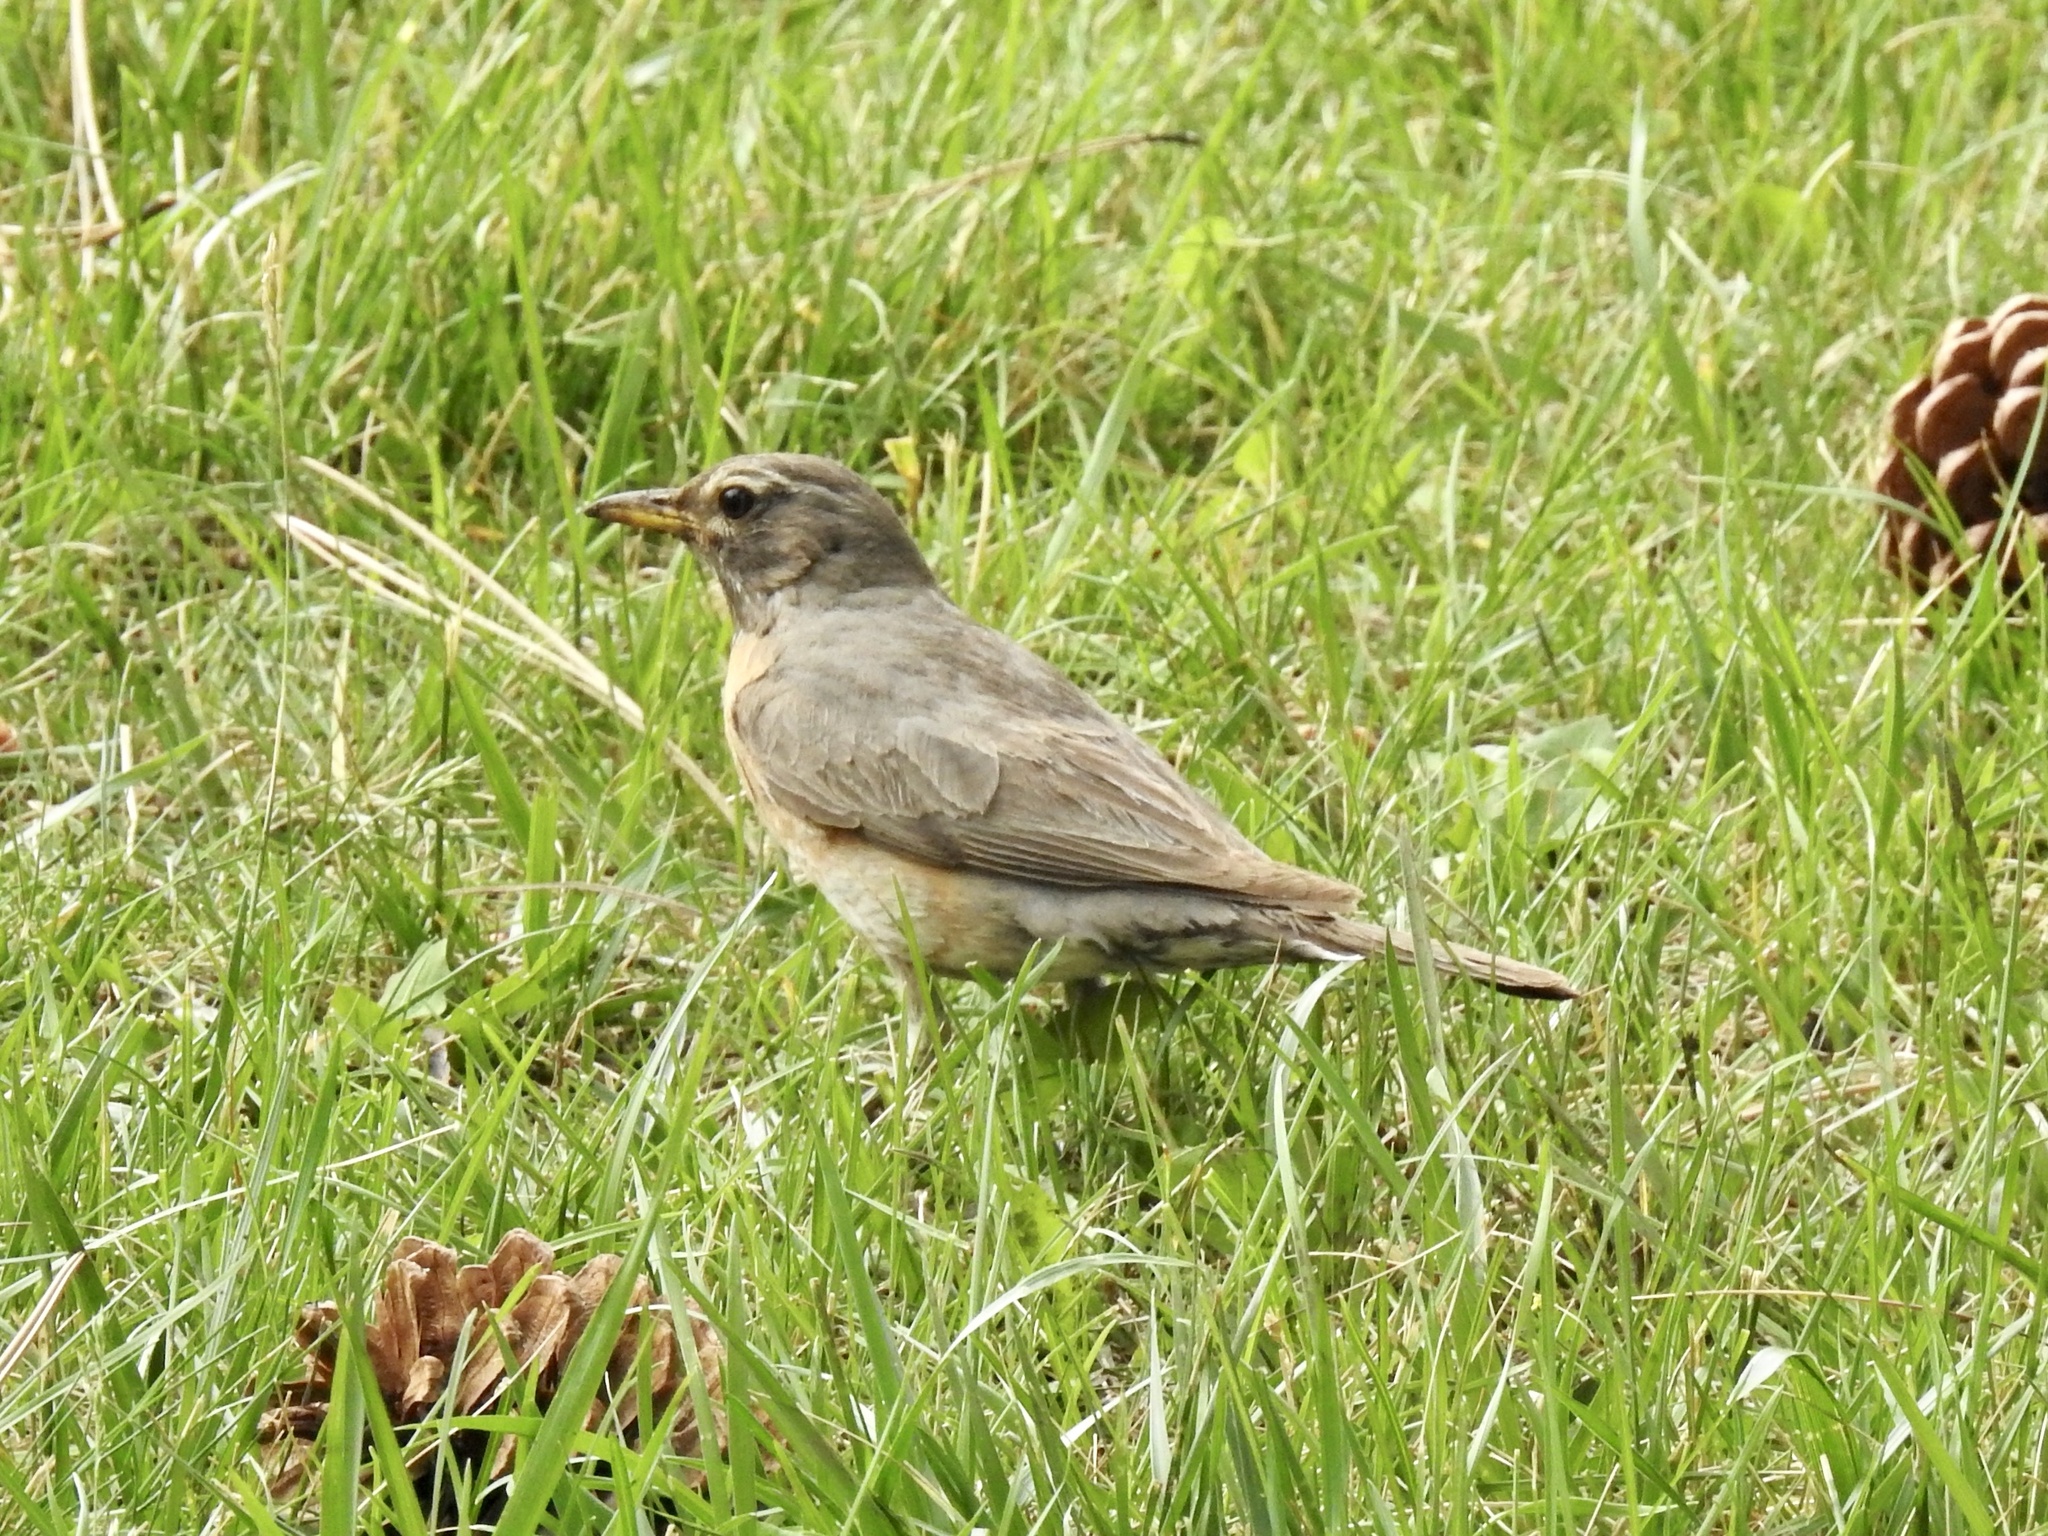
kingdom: Animalia
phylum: Chordata
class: Aves
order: Passeriformes
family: Turdidae
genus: Turdus
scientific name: Turdus migratorius
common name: American robin
